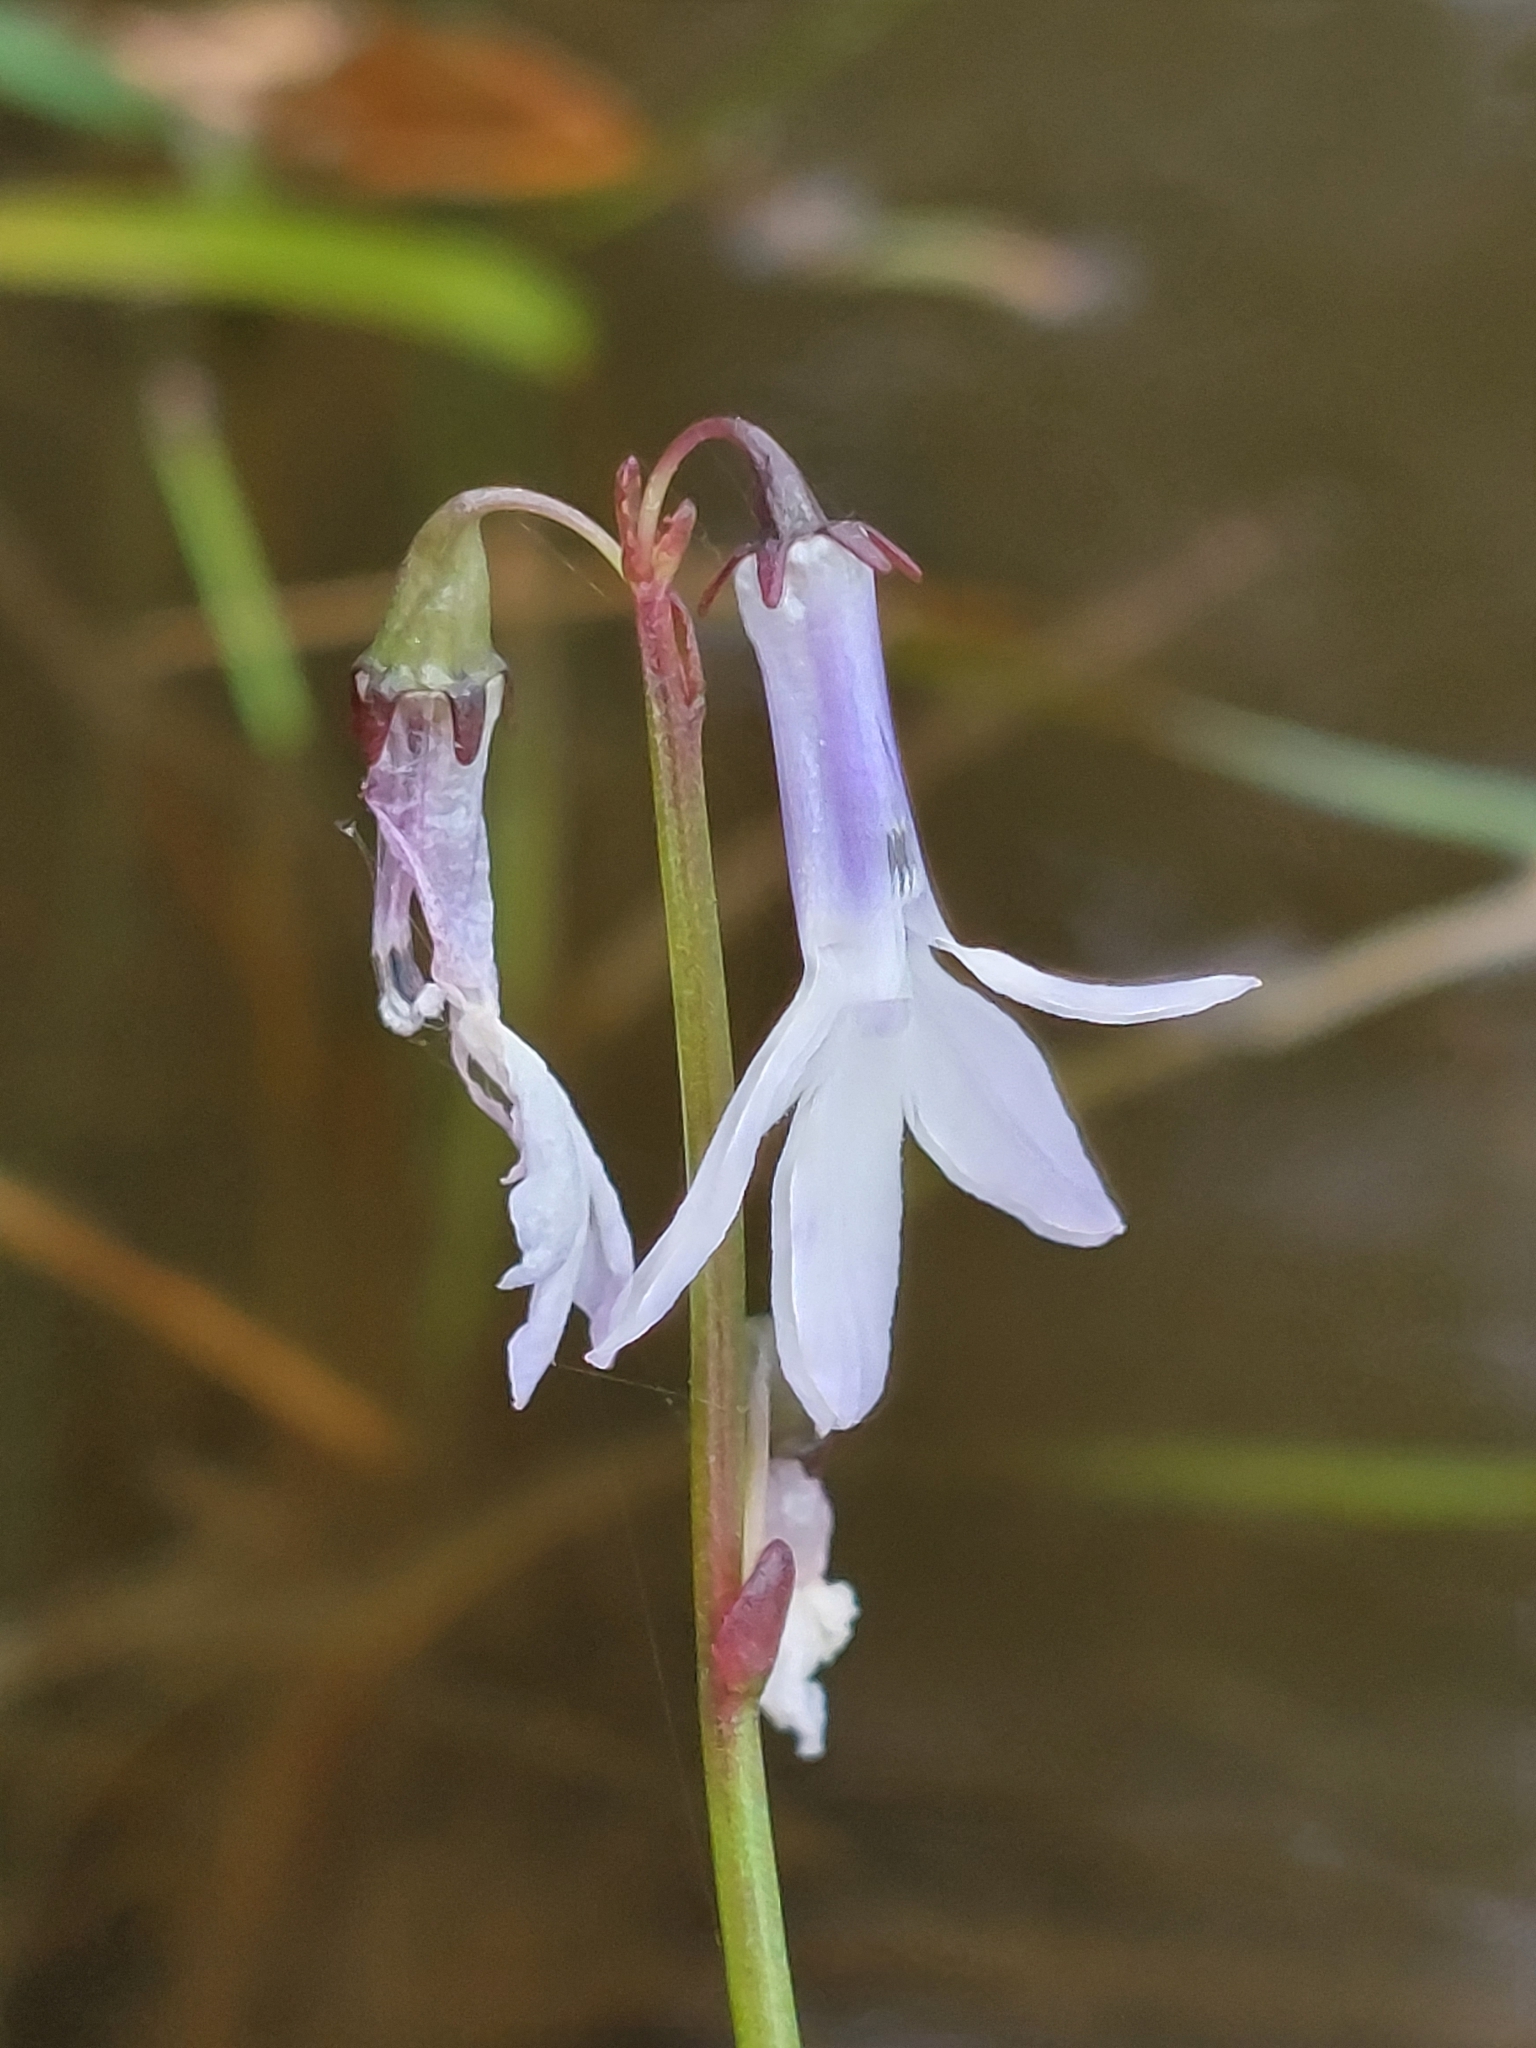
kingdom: Plantae
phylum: Tracheophyta
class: Magnoliopsida
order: Asterales
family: Campanulaceae
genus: Lobelia
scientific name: Lobelia dortmanna
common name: Water lobelia
